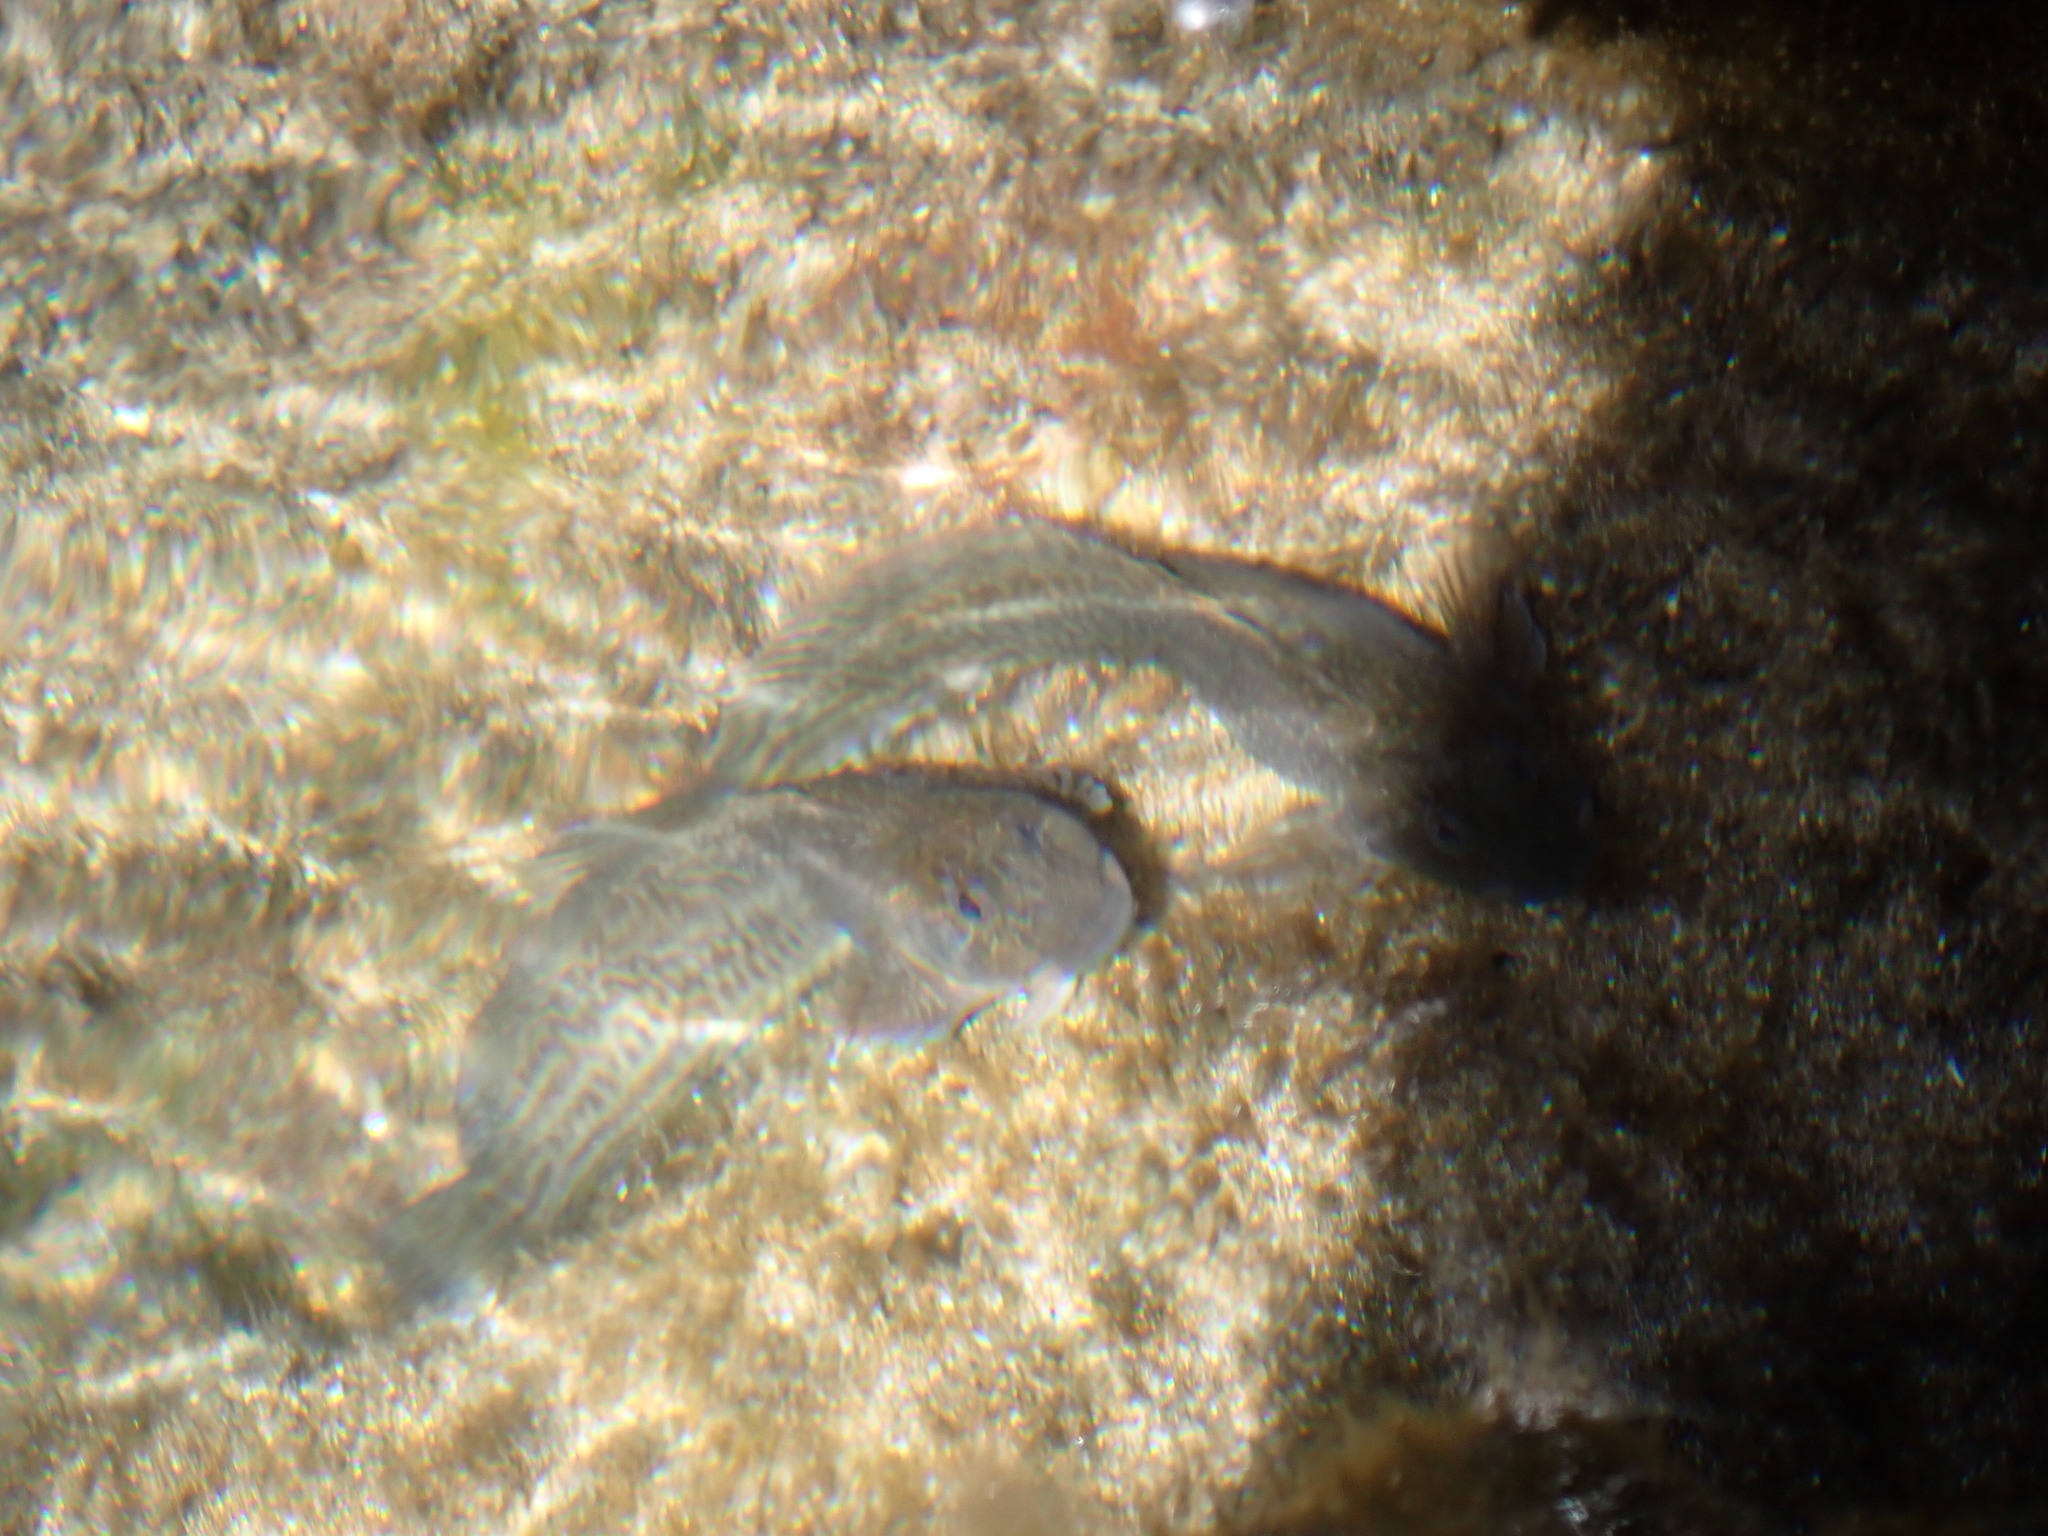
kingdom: Animalia
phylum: Chordata
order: Perciformes
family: Blenniidae
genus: Parablennius
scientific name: Parablennius parvicornis
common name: Rock-pool blenny
